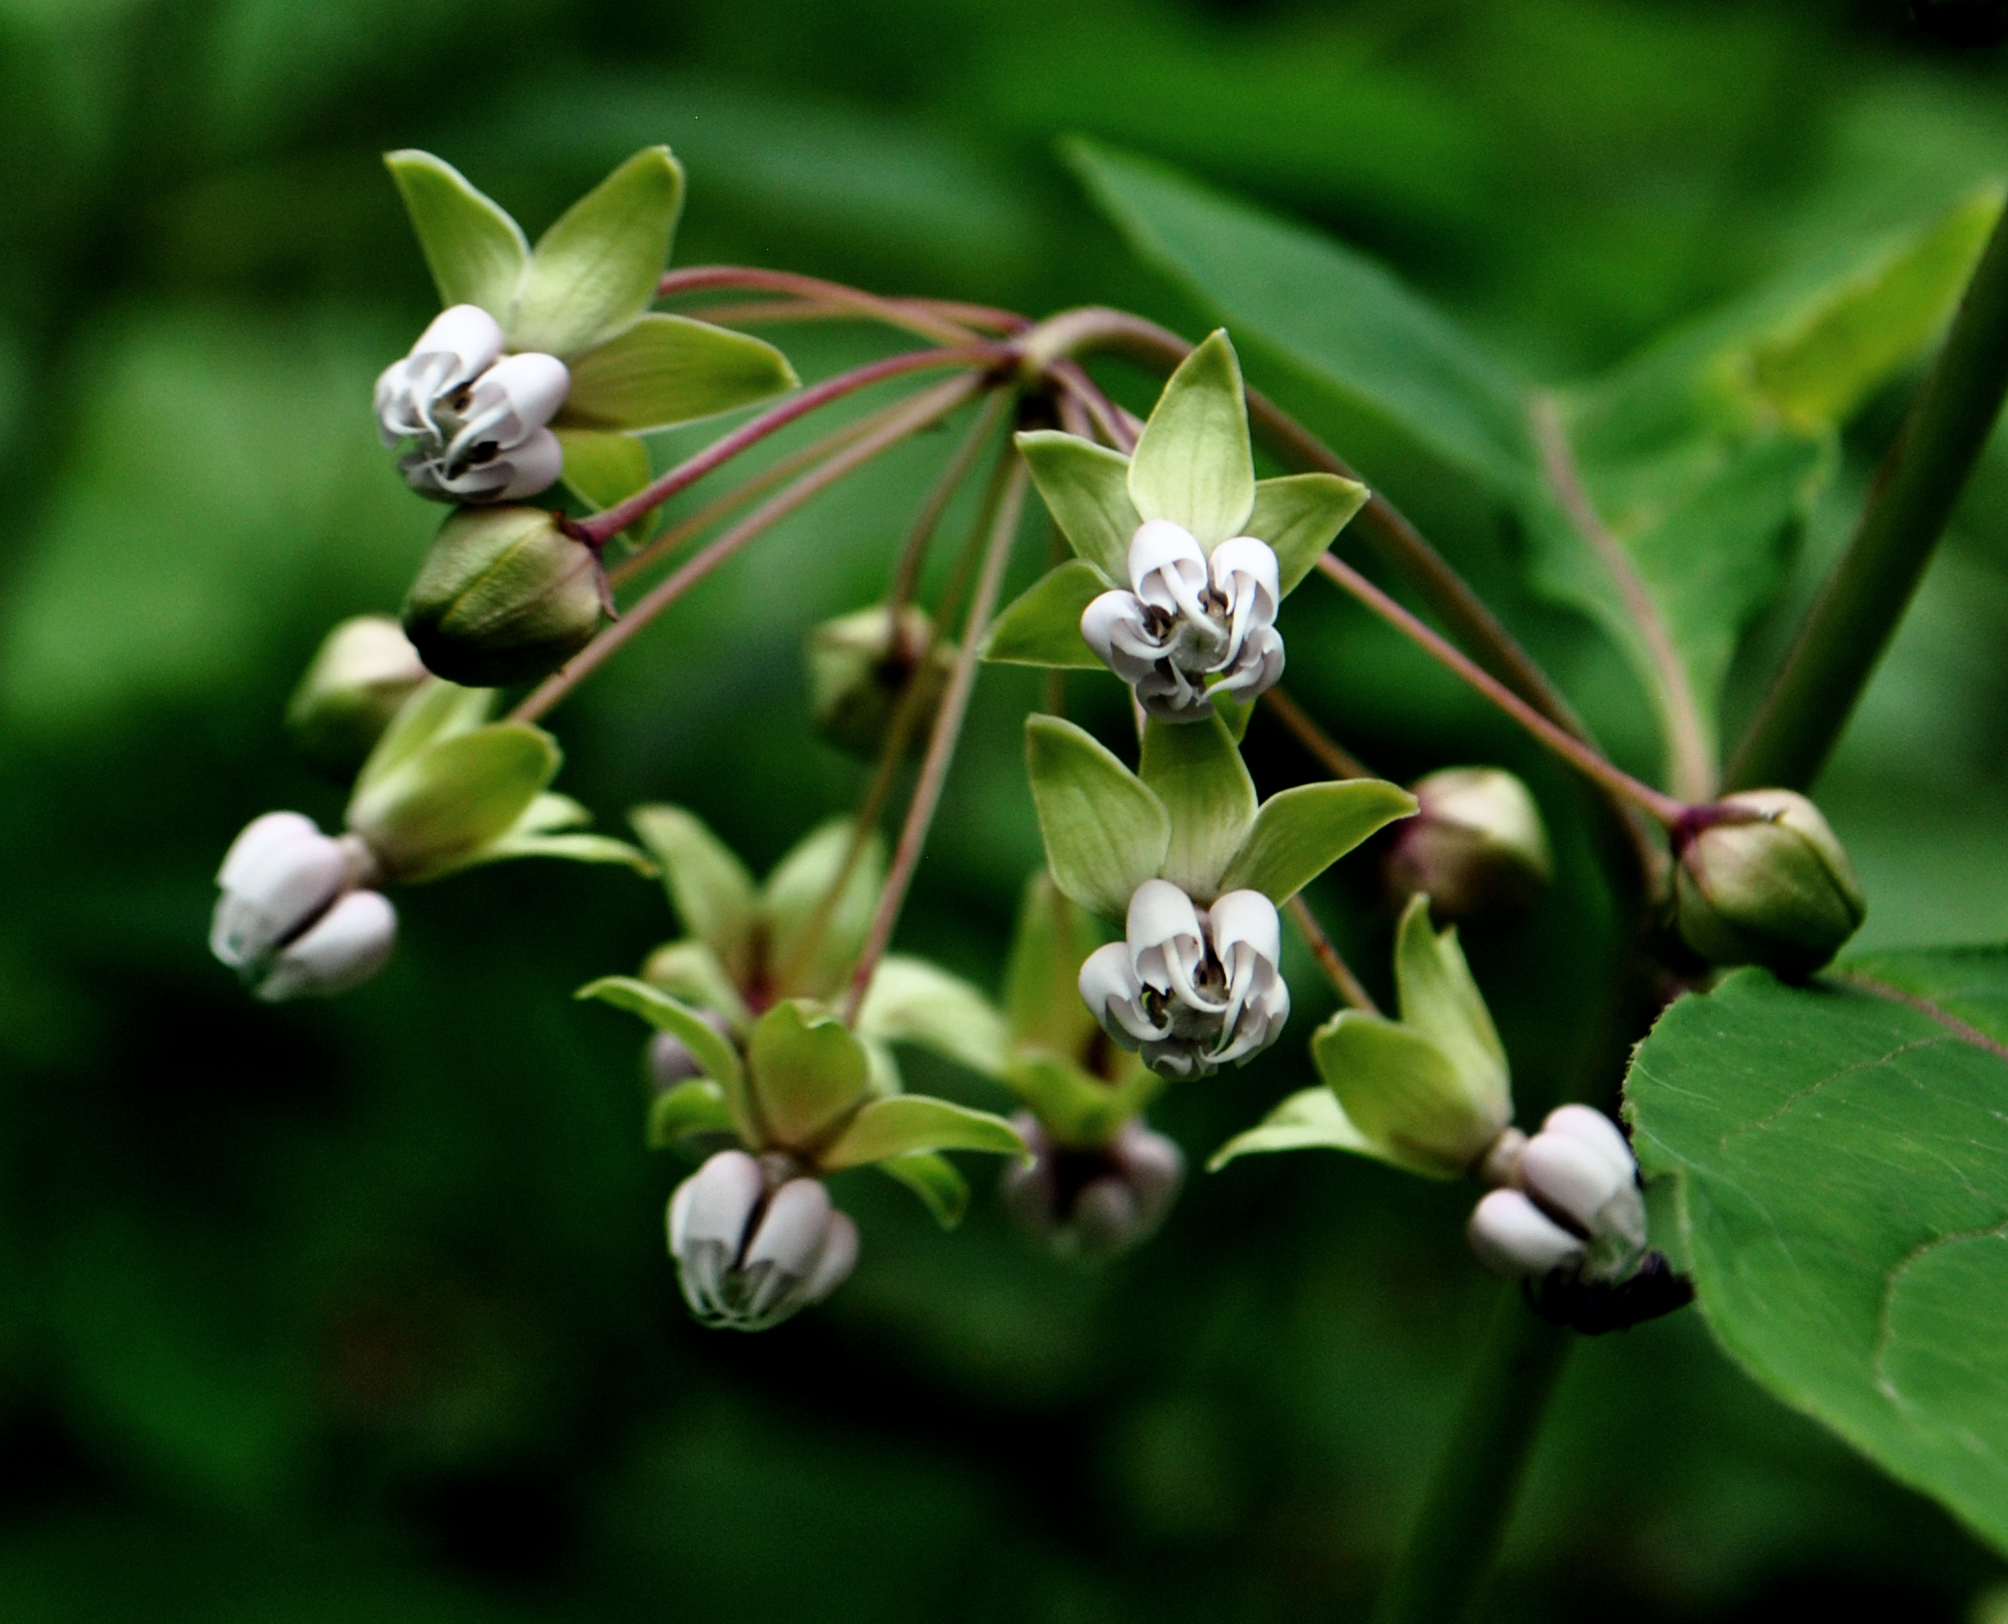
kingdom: Plantae
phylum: Tracheophyta
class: Magnoliopsida
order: Gentianales
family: Apocynaceae
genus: Asclepias
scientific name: Asclepias exaltata
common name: Poke milkweed
